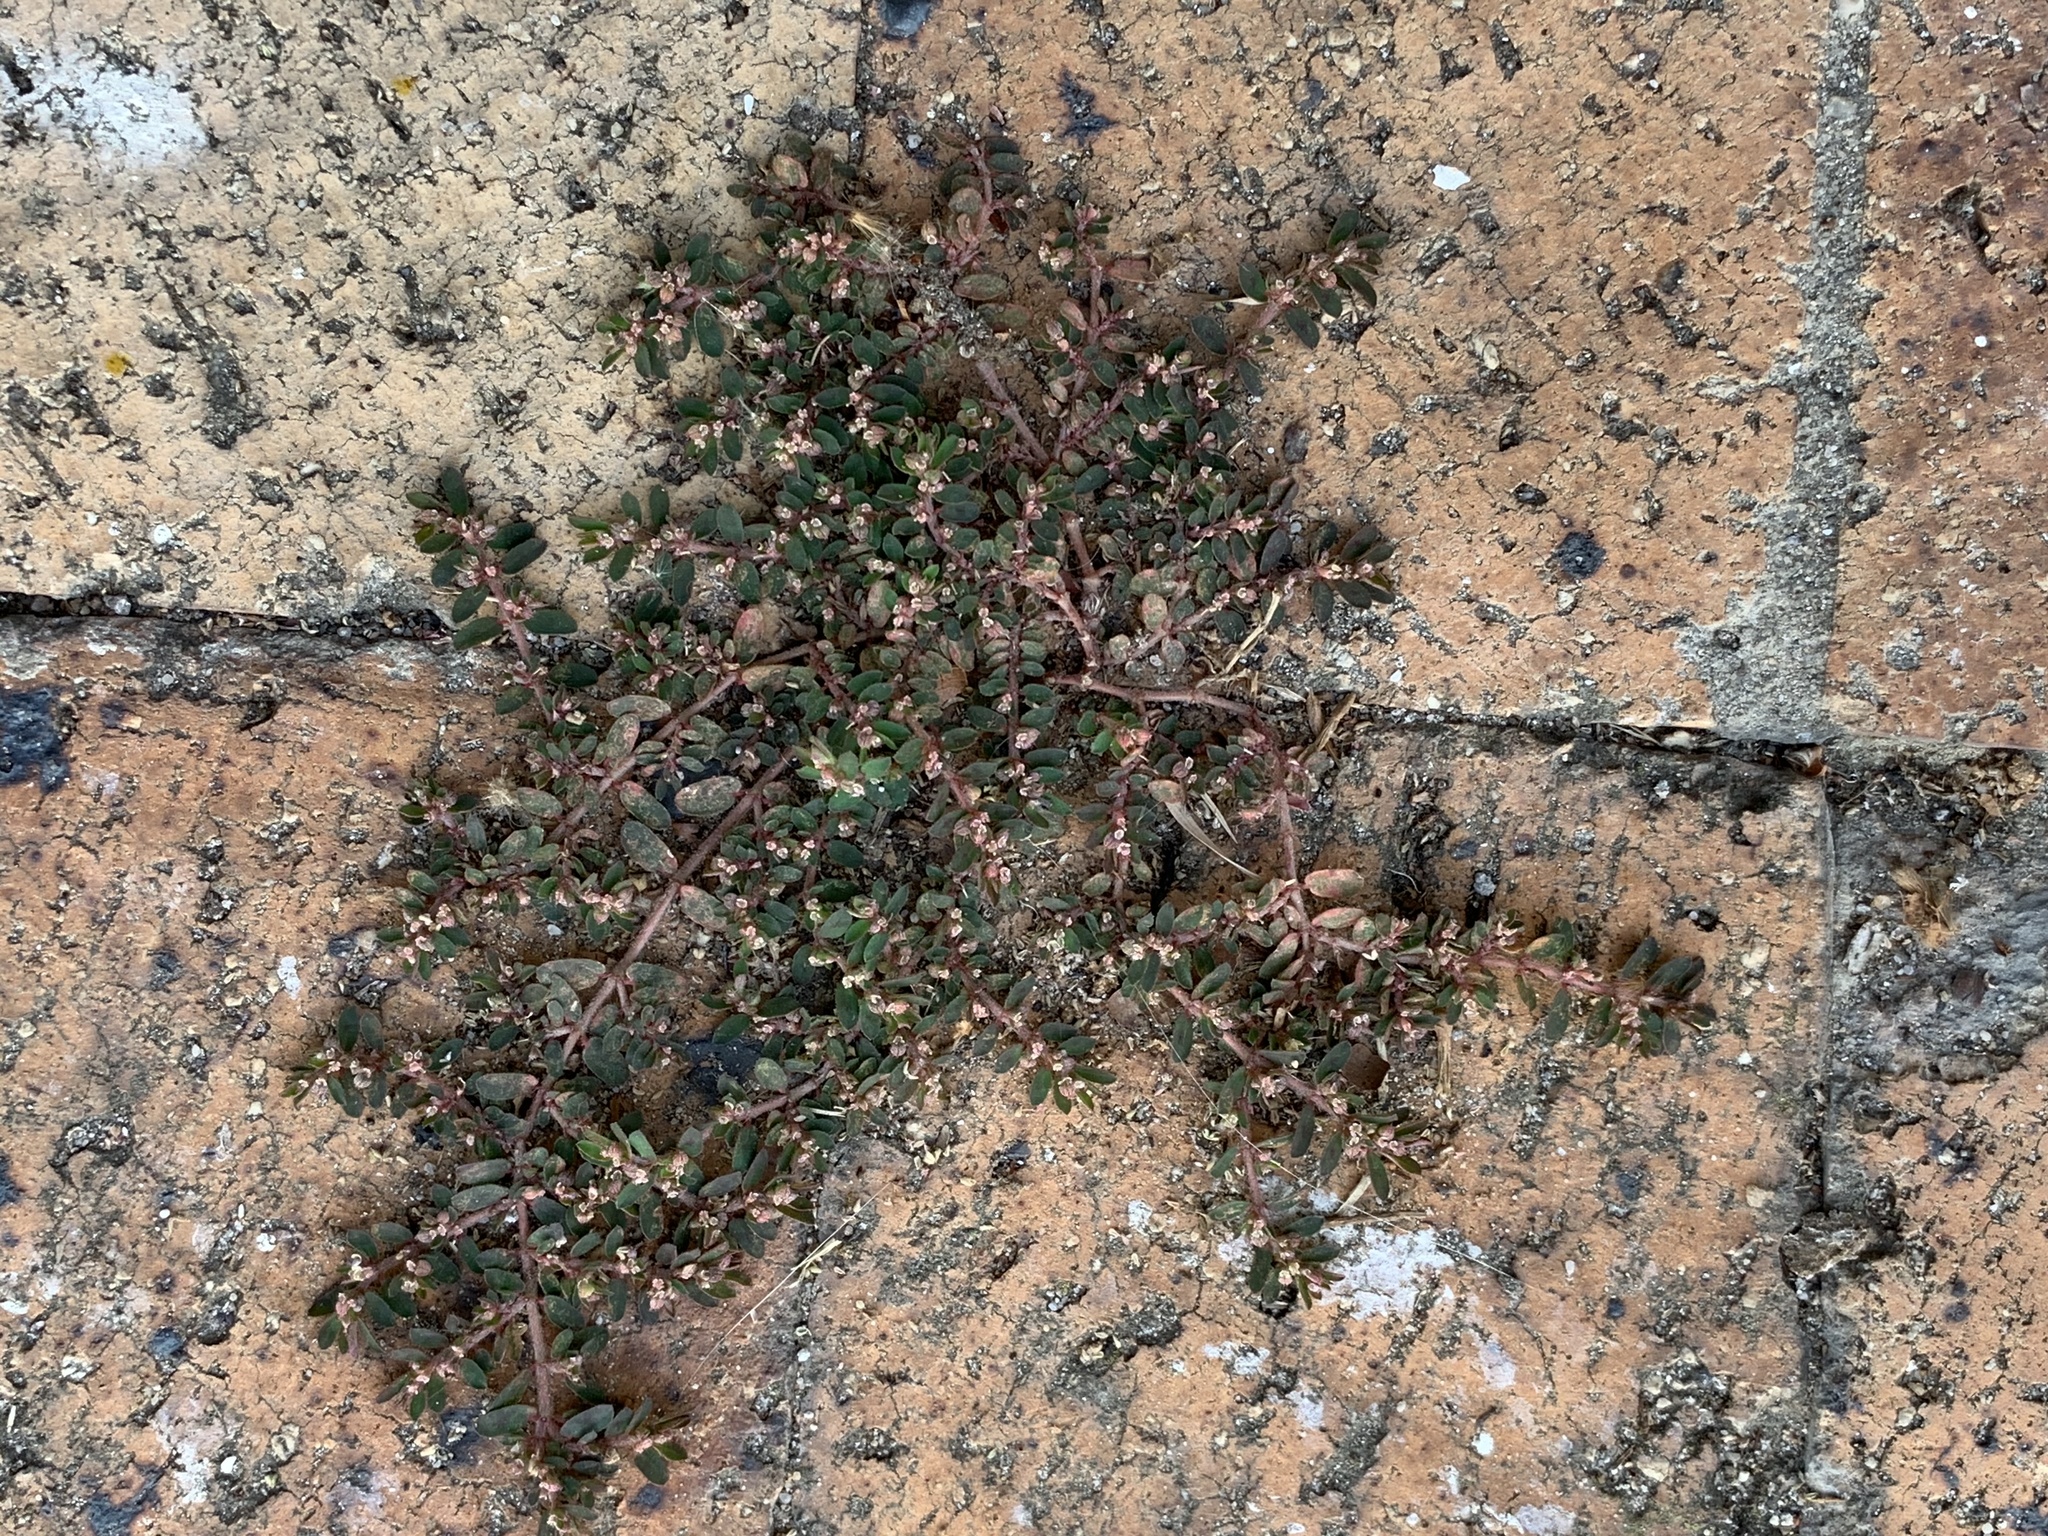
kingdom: Plantae
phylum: Tracheophyta
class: Magnoliopsida
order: Malpighiales
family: Euphorbiaceae
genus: Euphorbia
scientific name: Euphorbia maculata
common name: Spotted spurge
